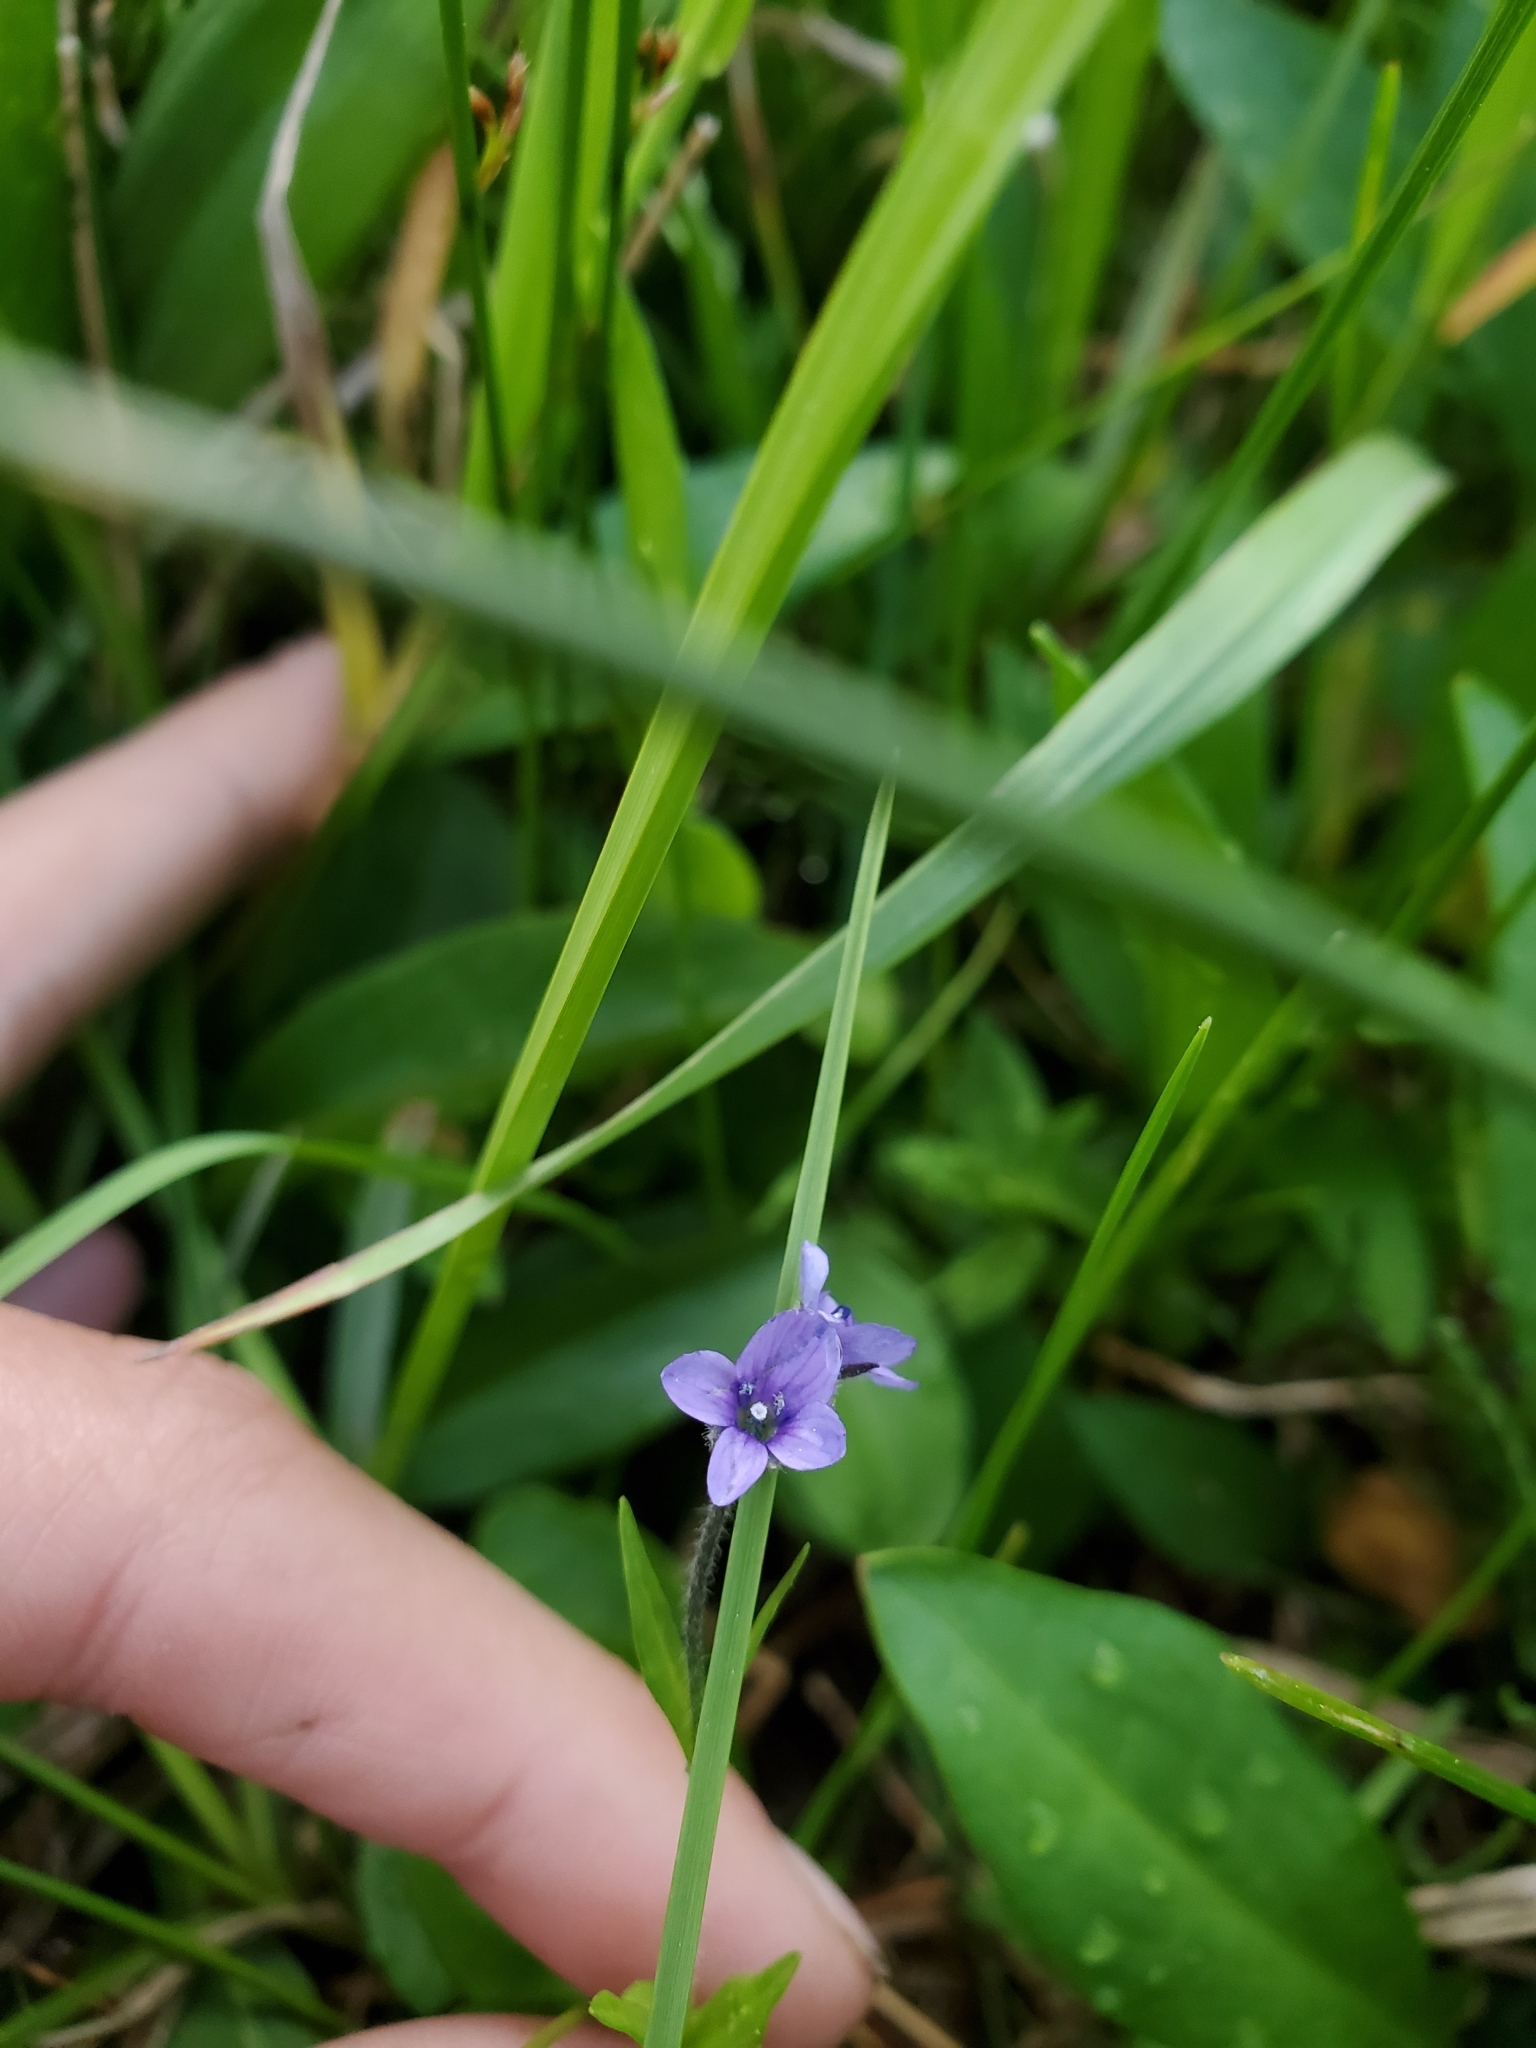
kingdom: Plantae
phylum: Tracheophyta
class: Magnoliopsida
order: Lamiales
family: Plantaginaceae
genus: Veronica
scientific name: Veronica wormskjoldii
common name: American alpine speedwell
